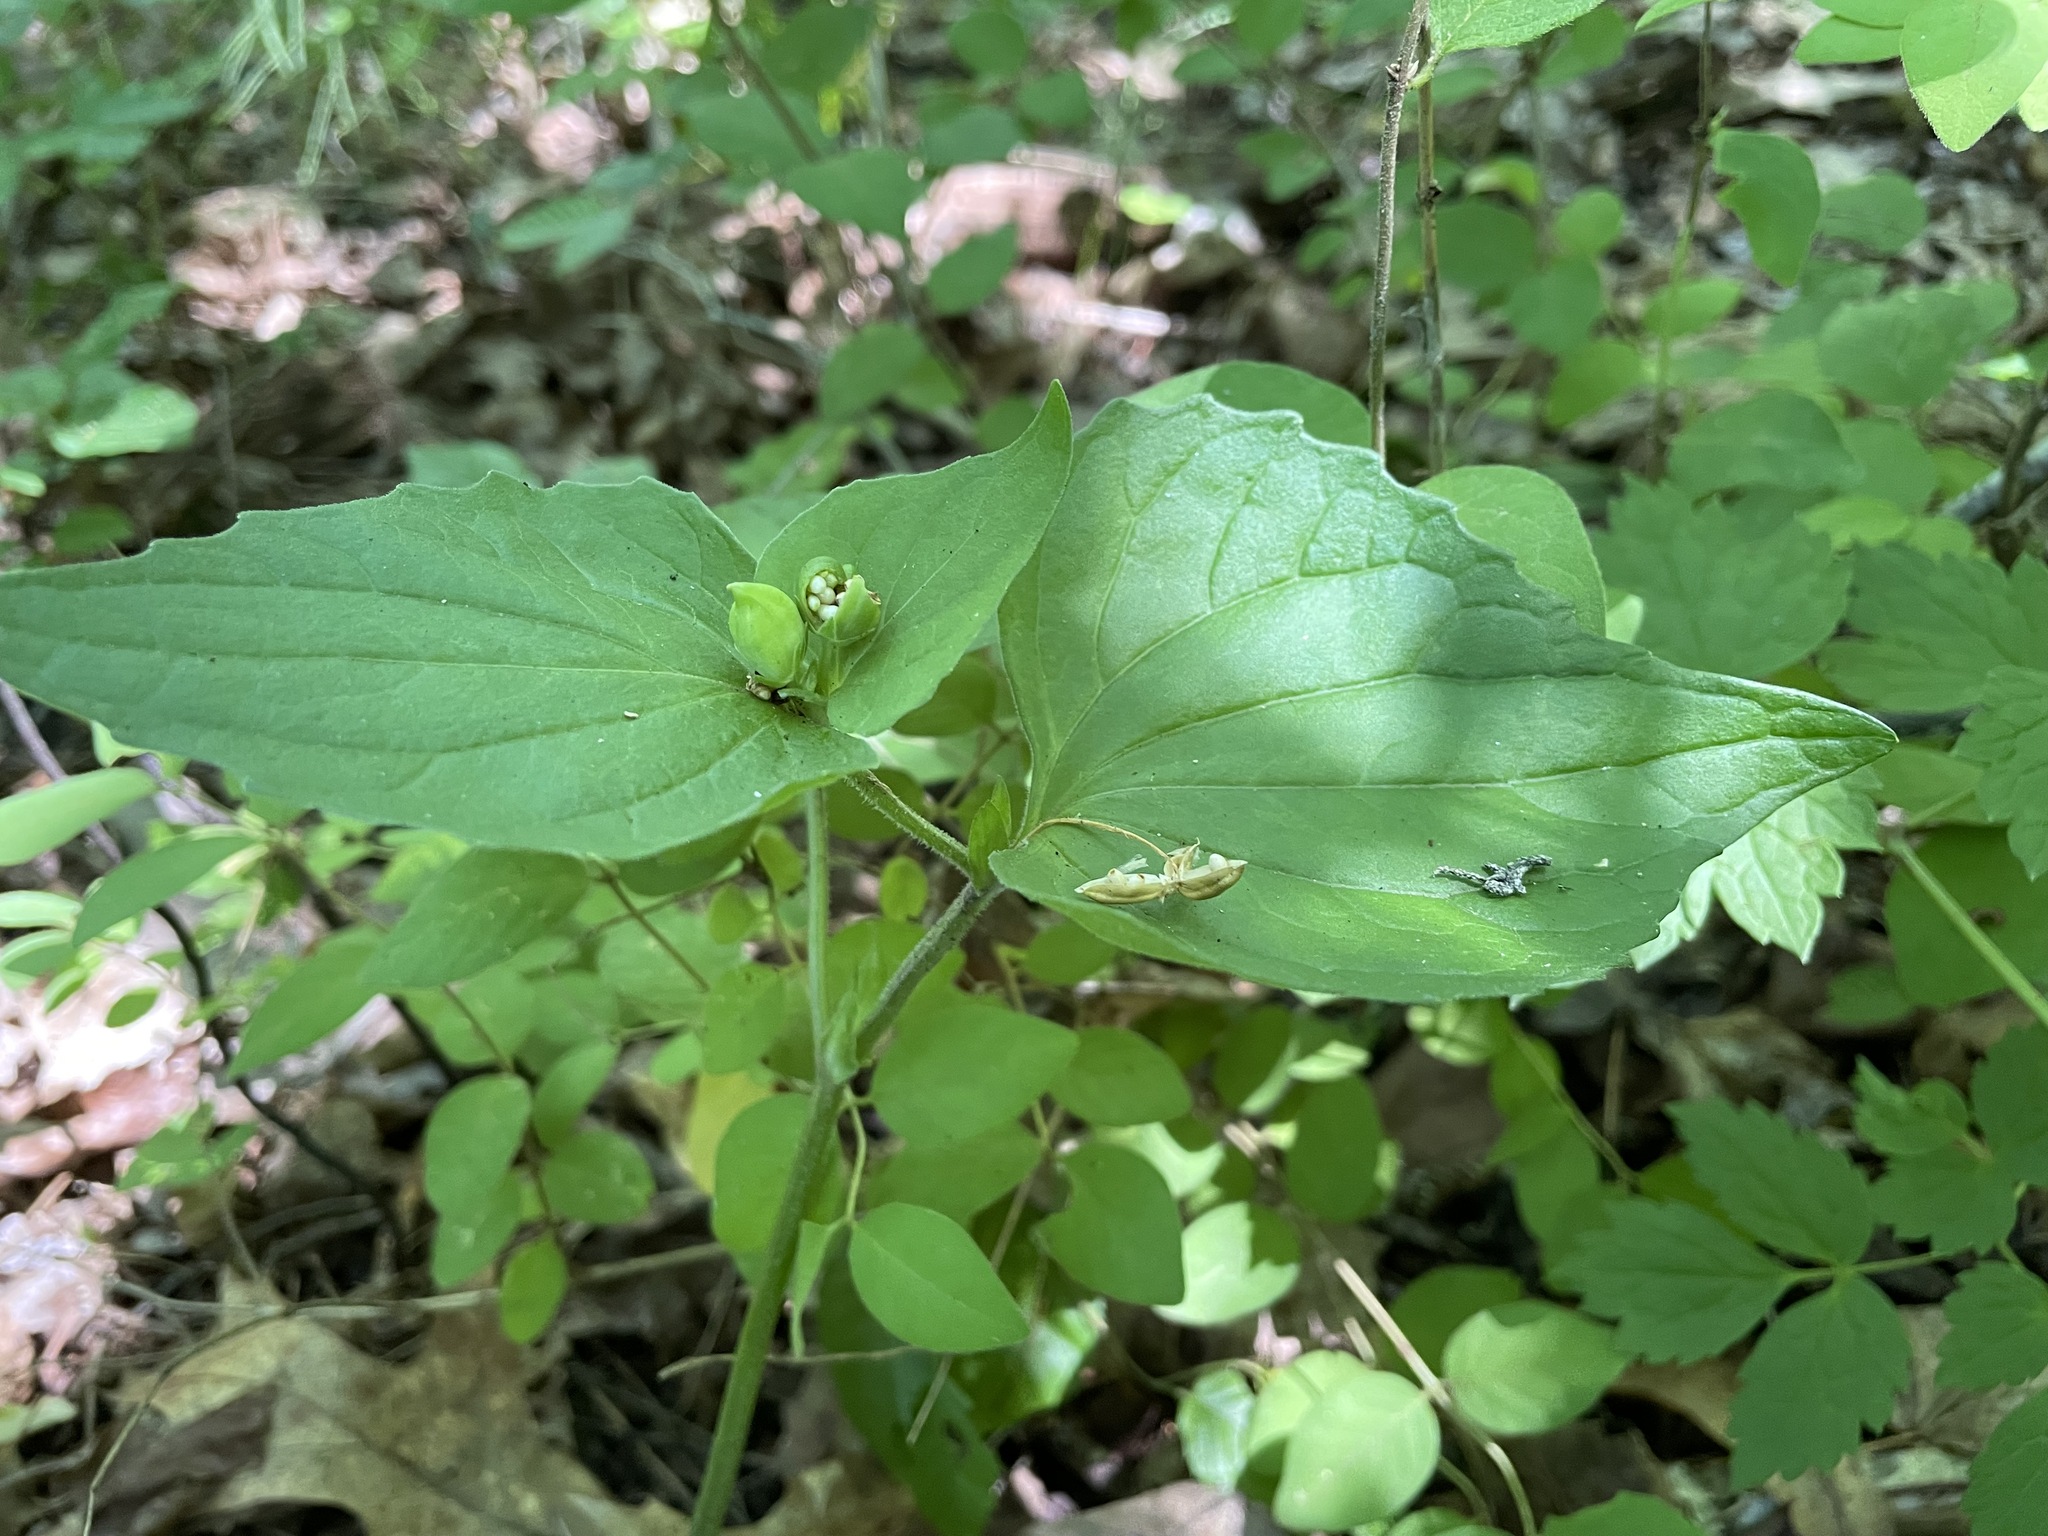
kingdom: Plantae
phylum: Tracheophyta
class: Magnoliopsida
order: Malpighiales
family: Violaceae
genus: Viola
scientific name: Viola eriocarpa
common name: Smooth yellow violet
